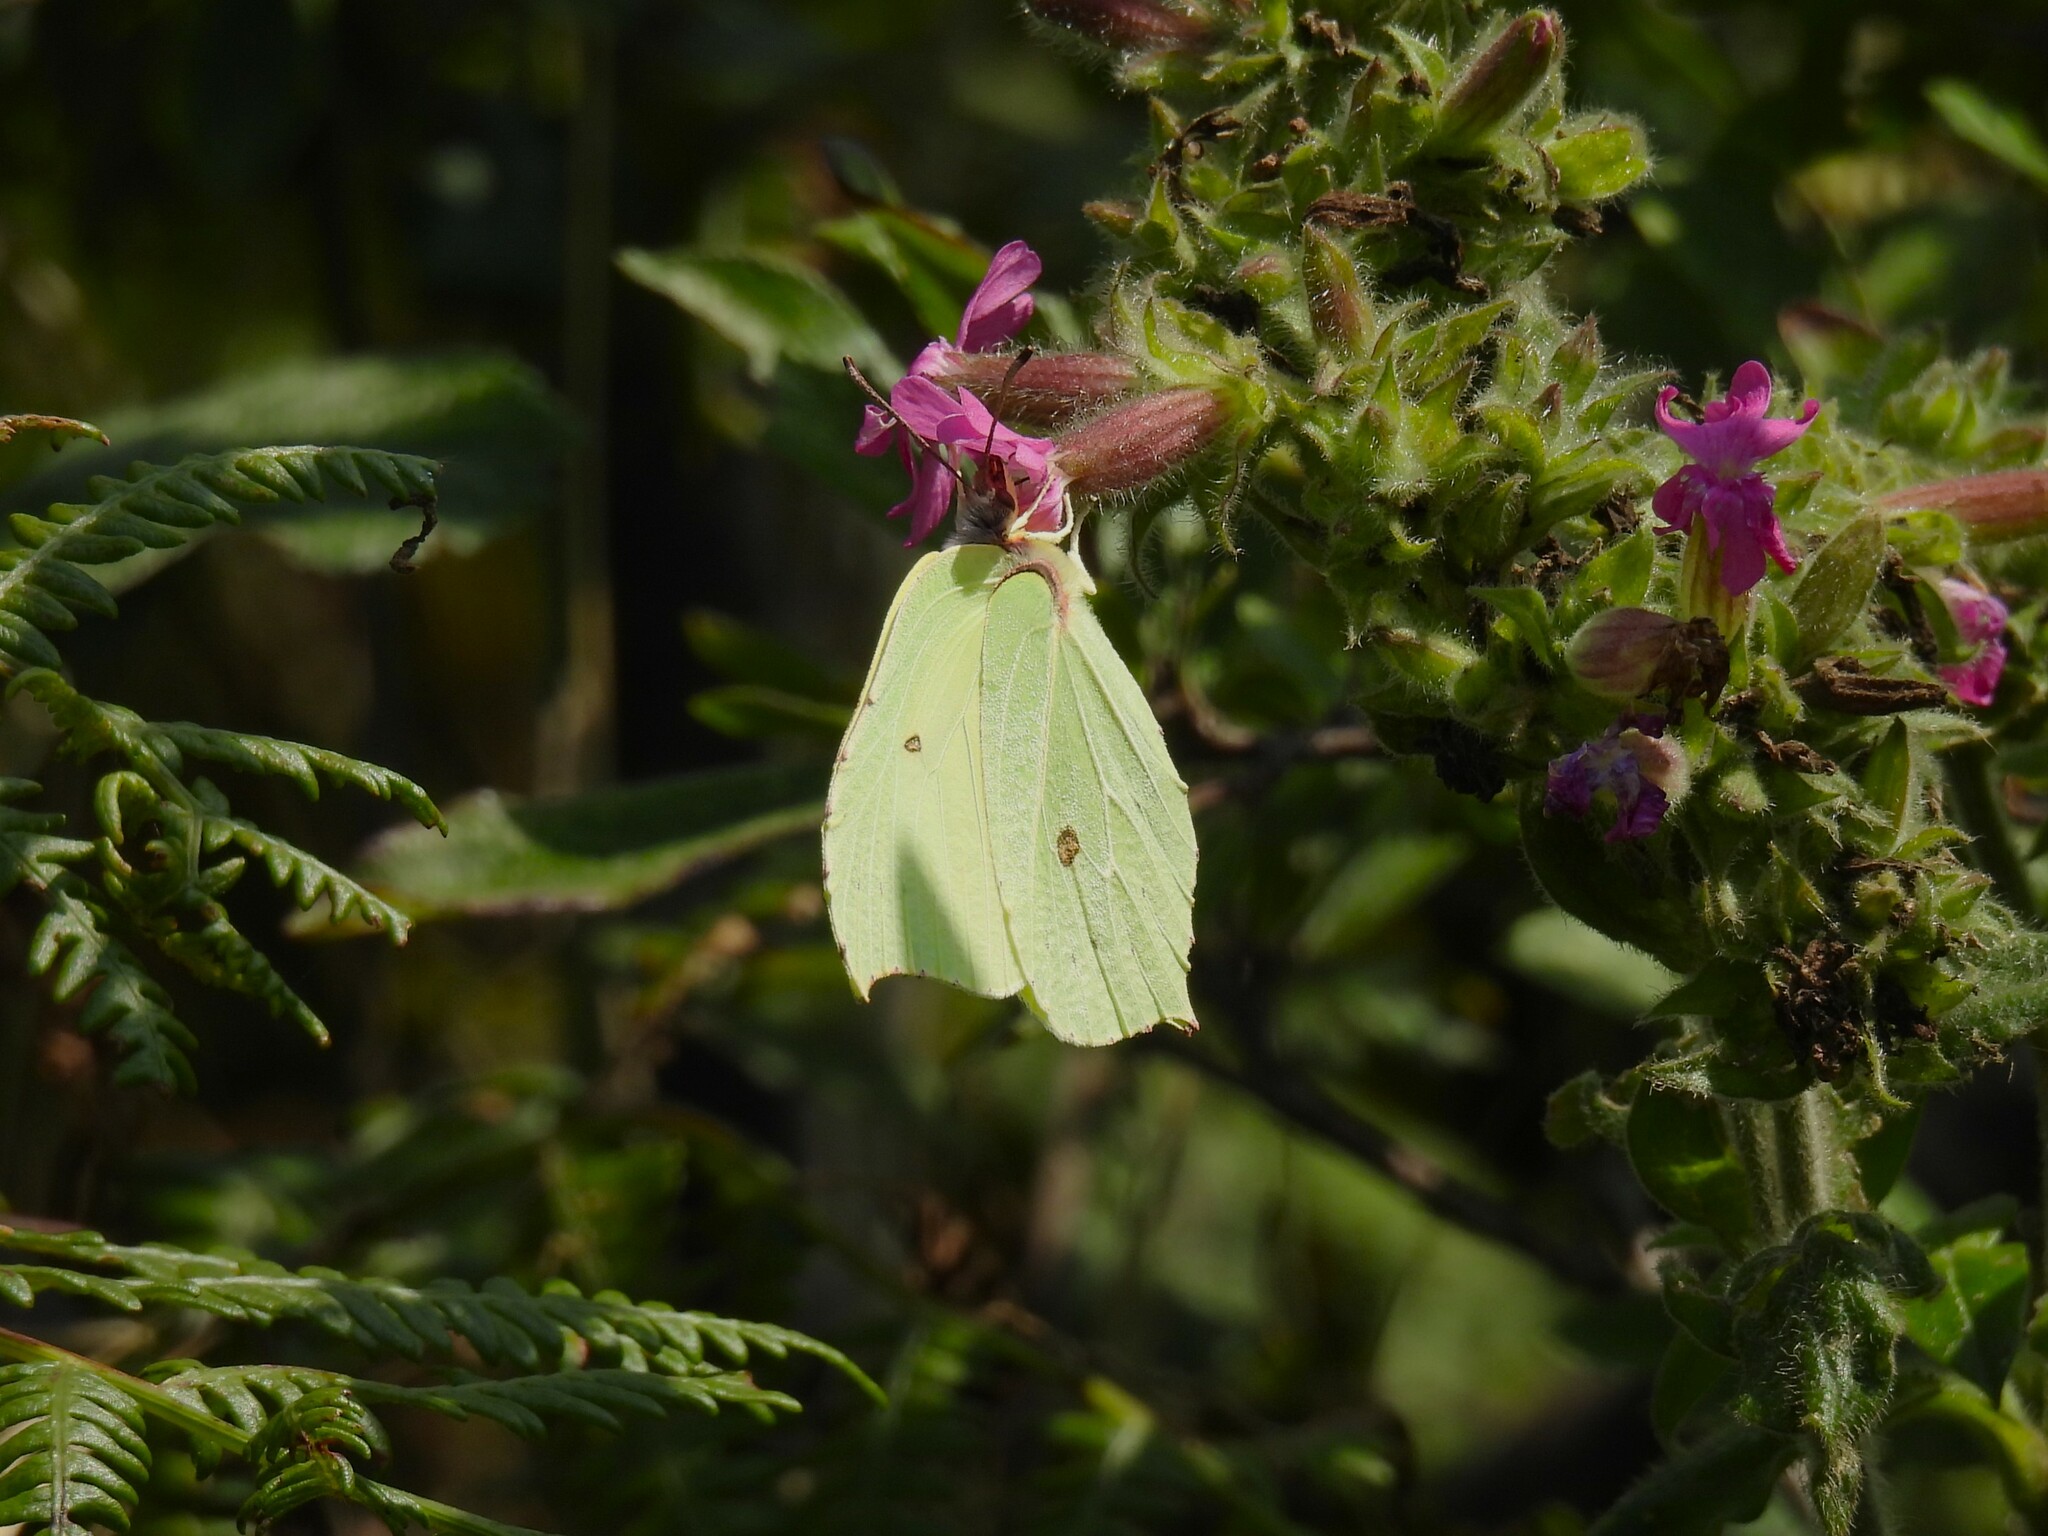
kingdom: Animalia
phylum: Arthropoda
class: Insecta
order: Lepidoptera
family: Pieridae
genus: Gonepteryx
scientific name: Gonepteryx rhamni
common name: Brimstone
